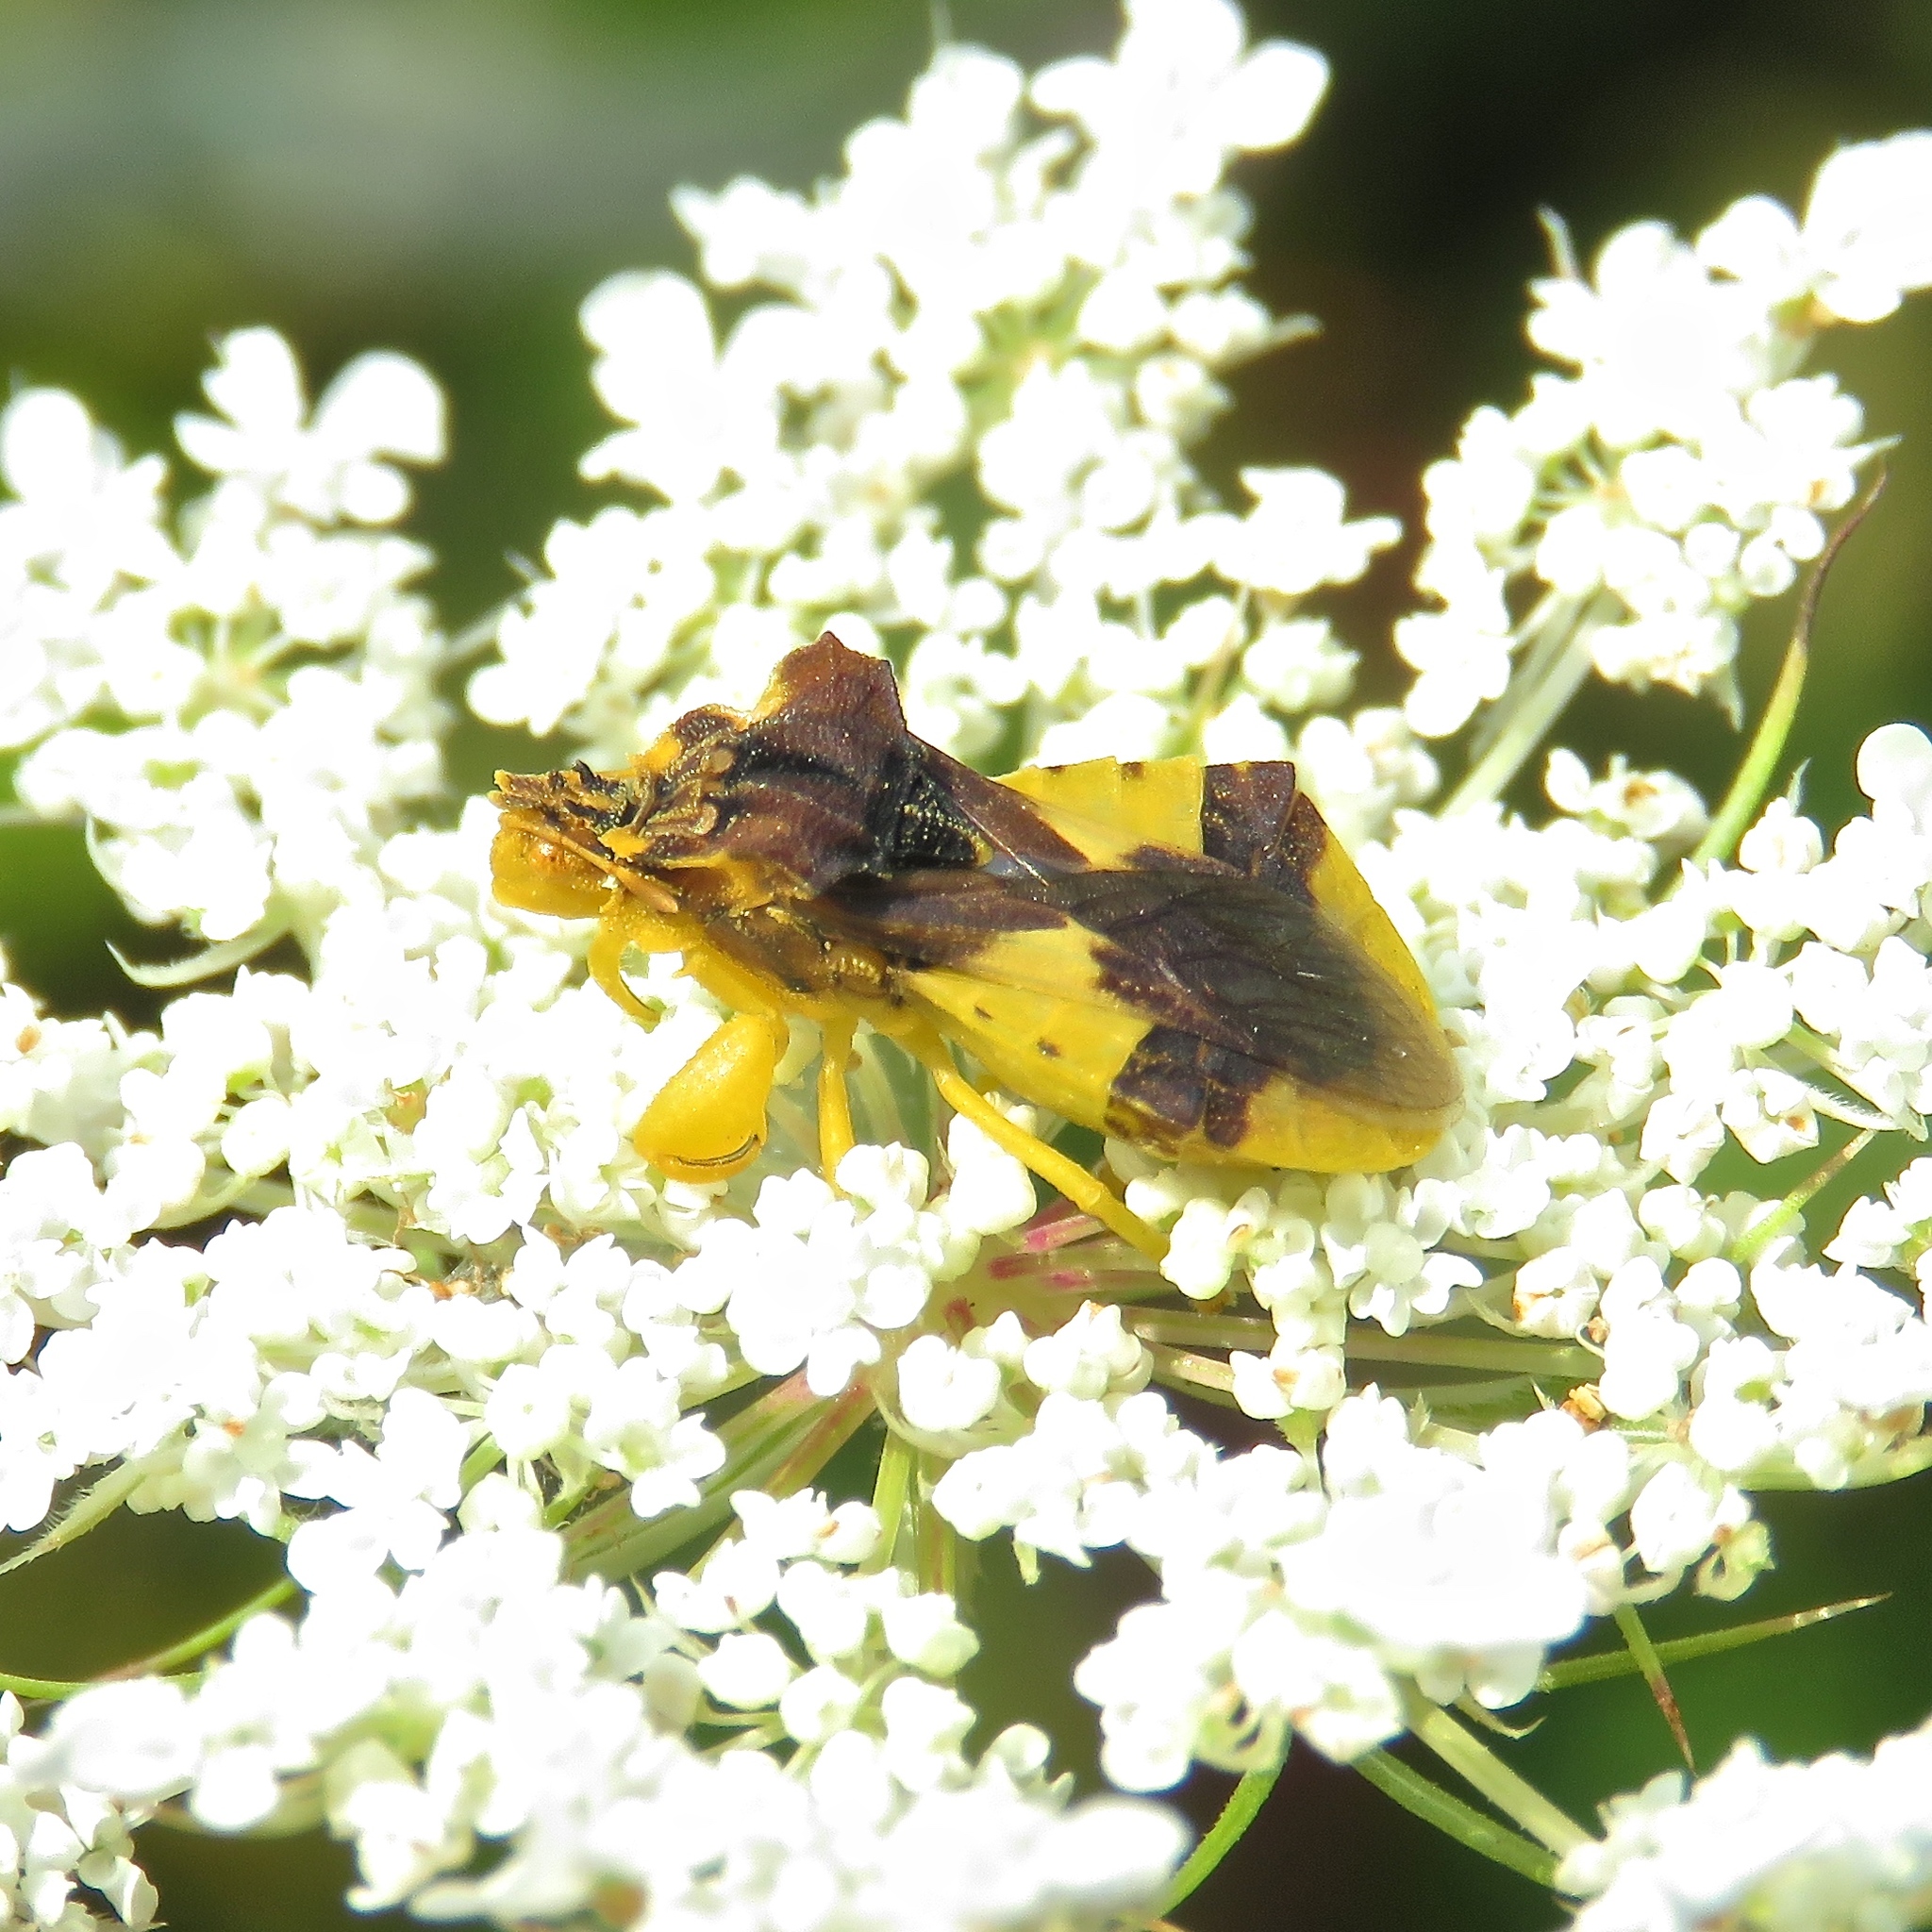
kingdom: Animalia
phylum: Arthropoda
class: Insecta
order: Hemiptera
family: Reduviidae
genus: Phymata
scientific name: Phymata americana
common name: Jagged ambush bug
